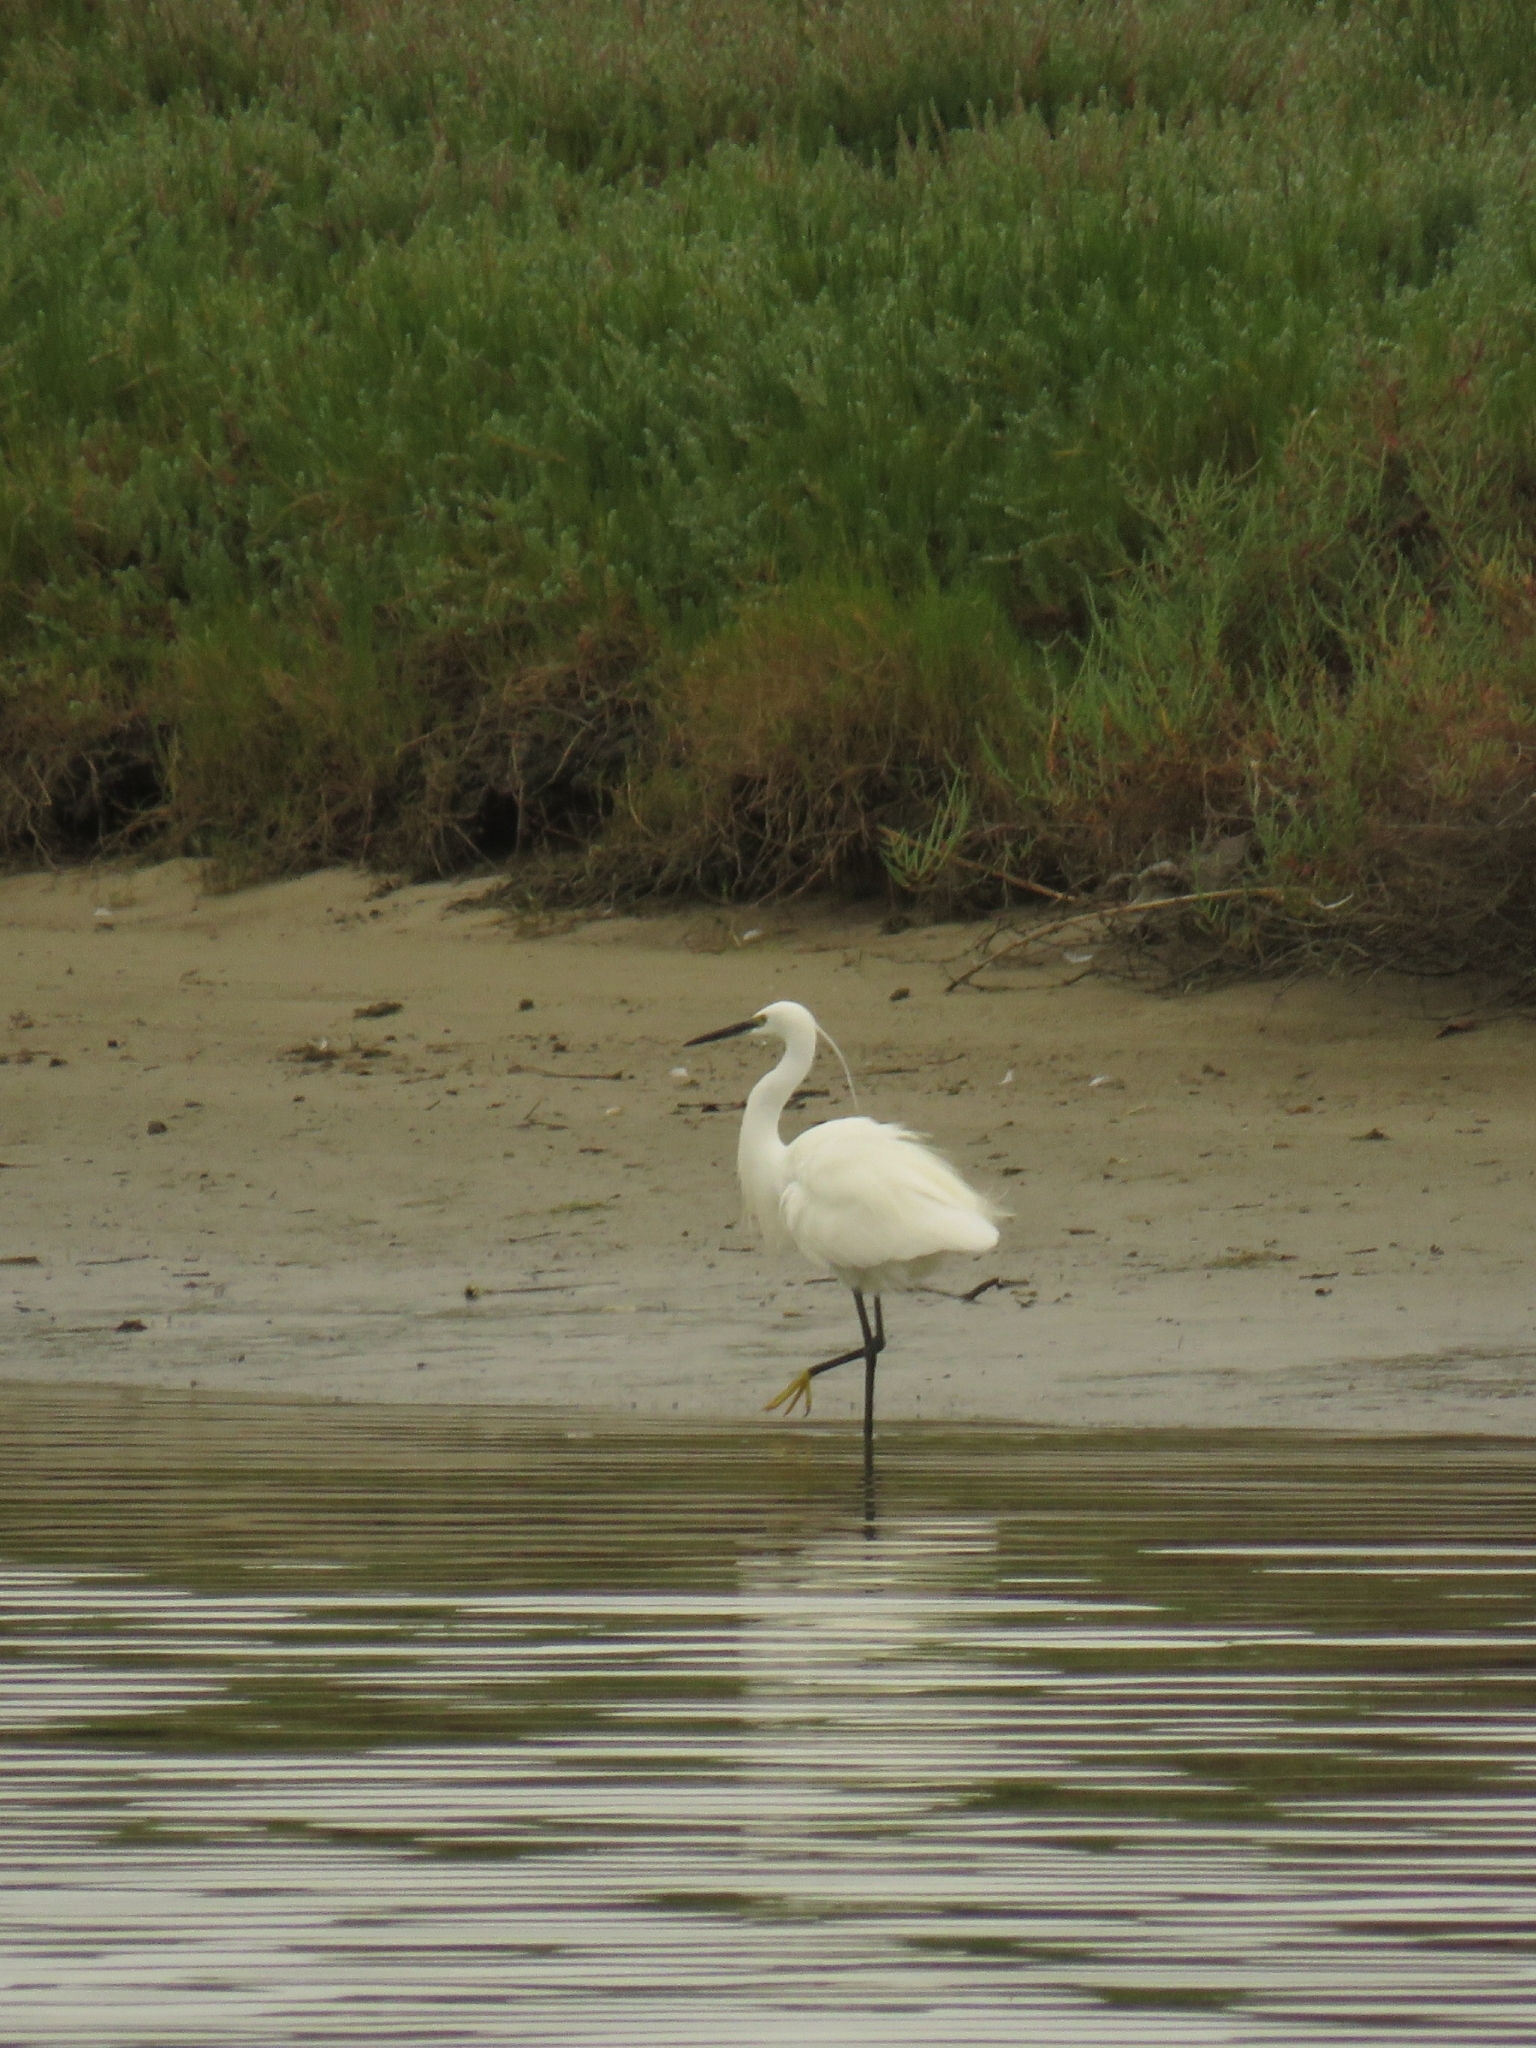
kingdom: Animalia
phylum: Chordata
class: Aves
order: Pelecaniformes
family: Ardeidae
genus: Egretta
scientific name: Egretta garzetta
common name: Little egret
